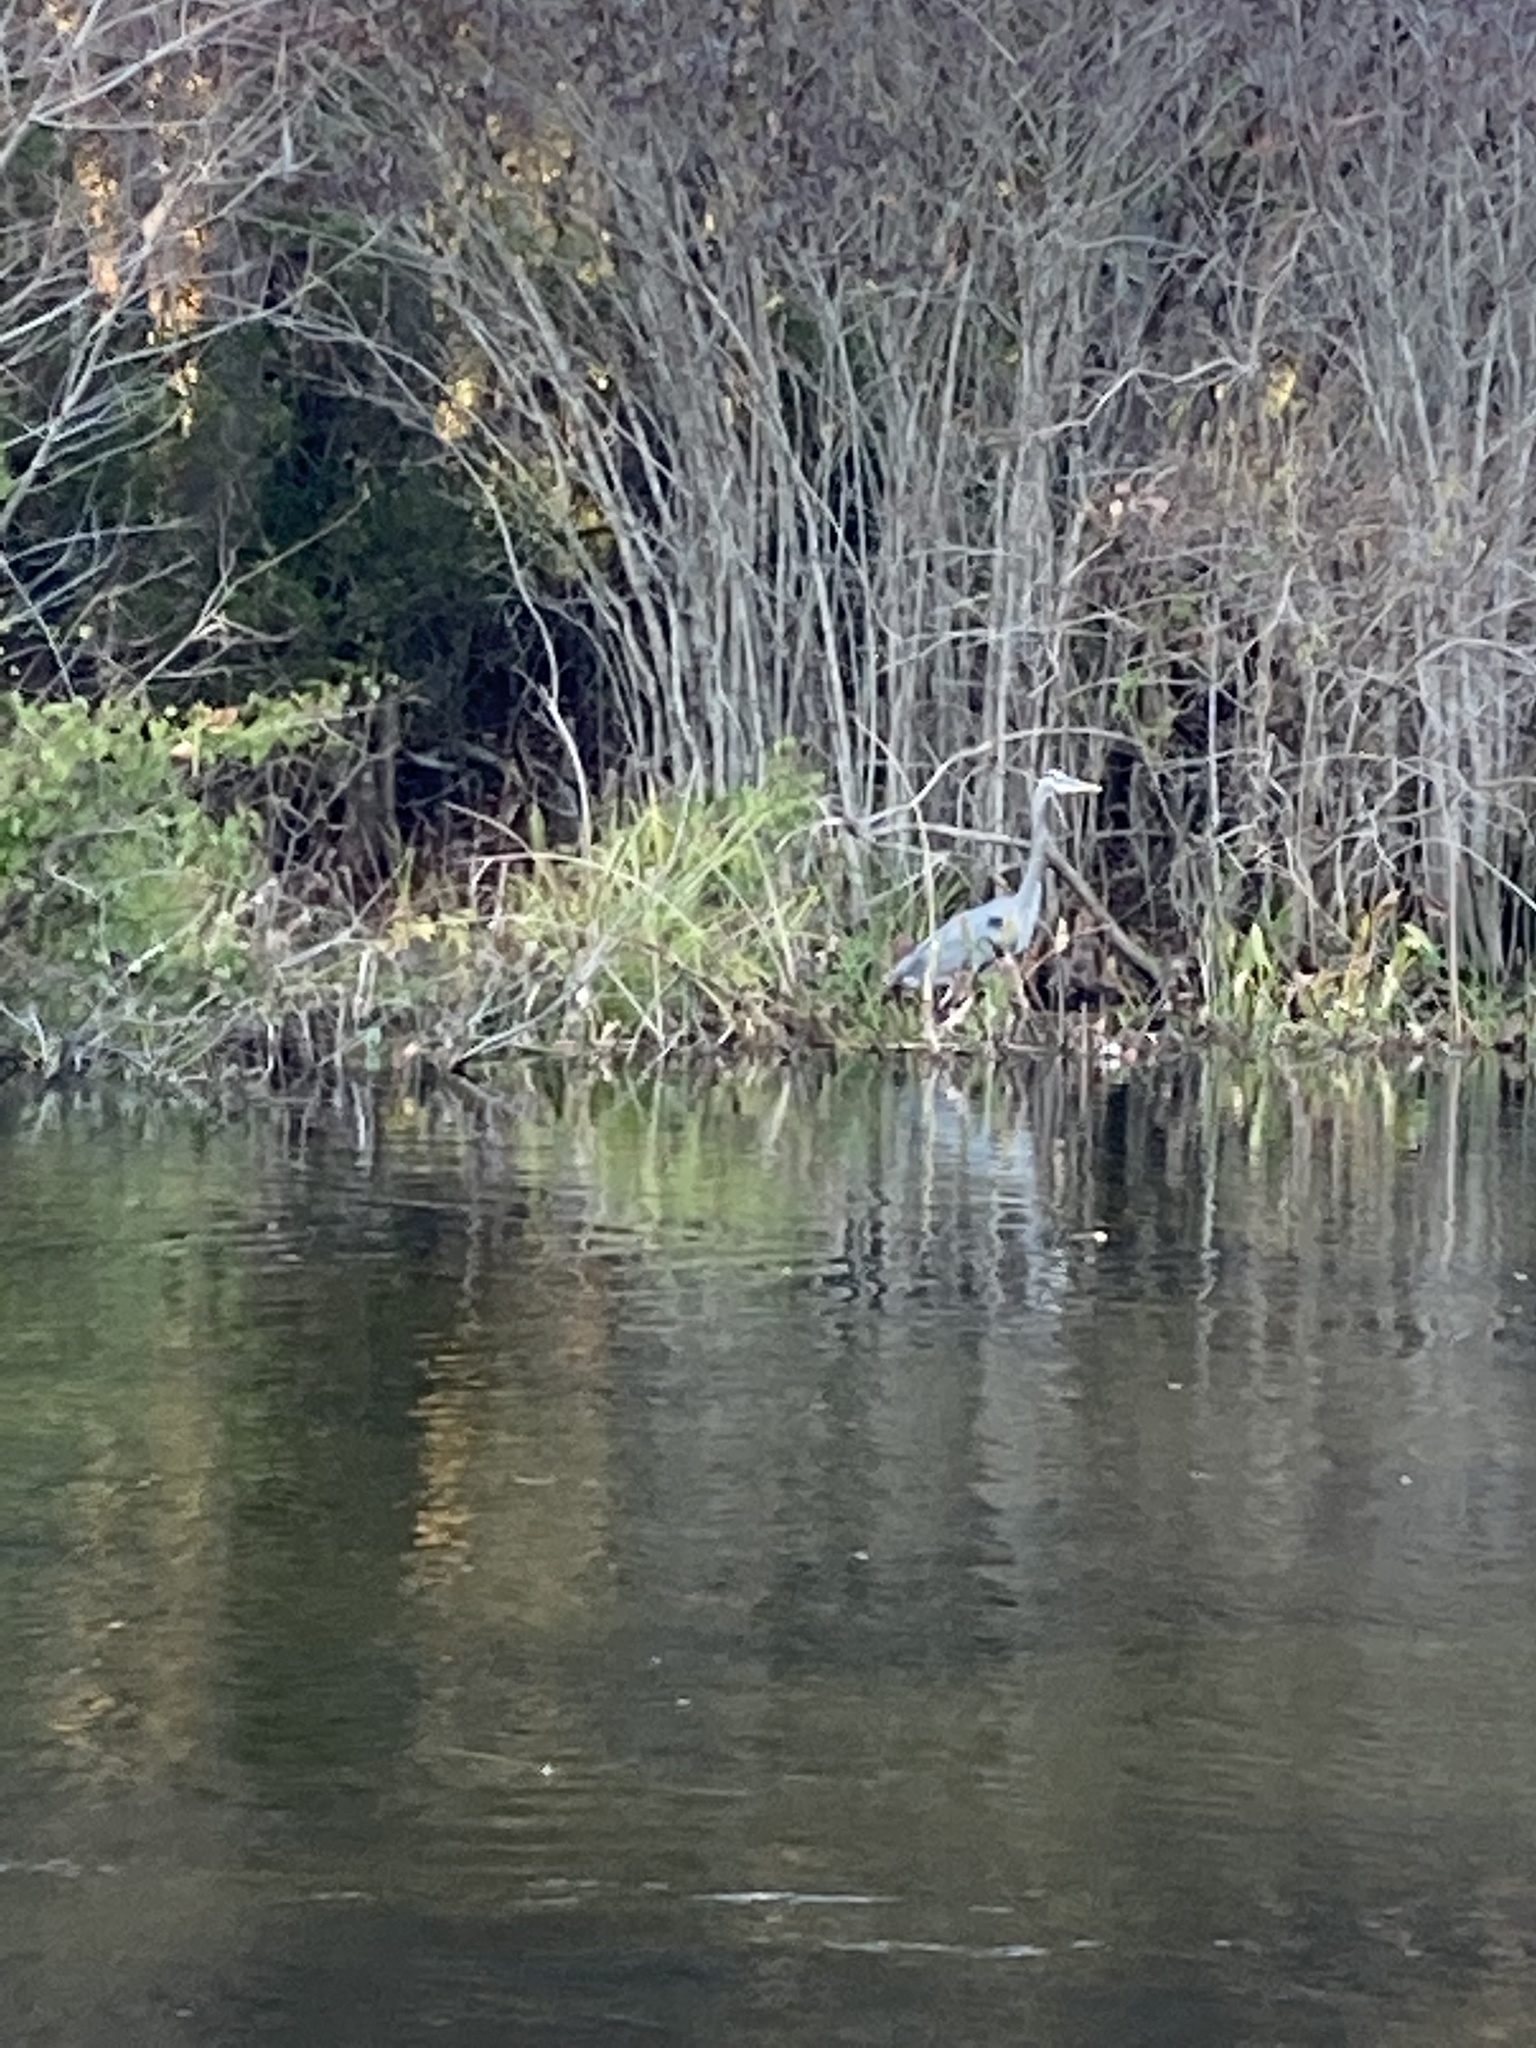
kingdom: Animalia
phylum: Chordata
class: Aves
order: Pelecaniformes
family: Ardeidae
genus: Ardea
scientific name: Ardea herodias
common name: Great blue heron
